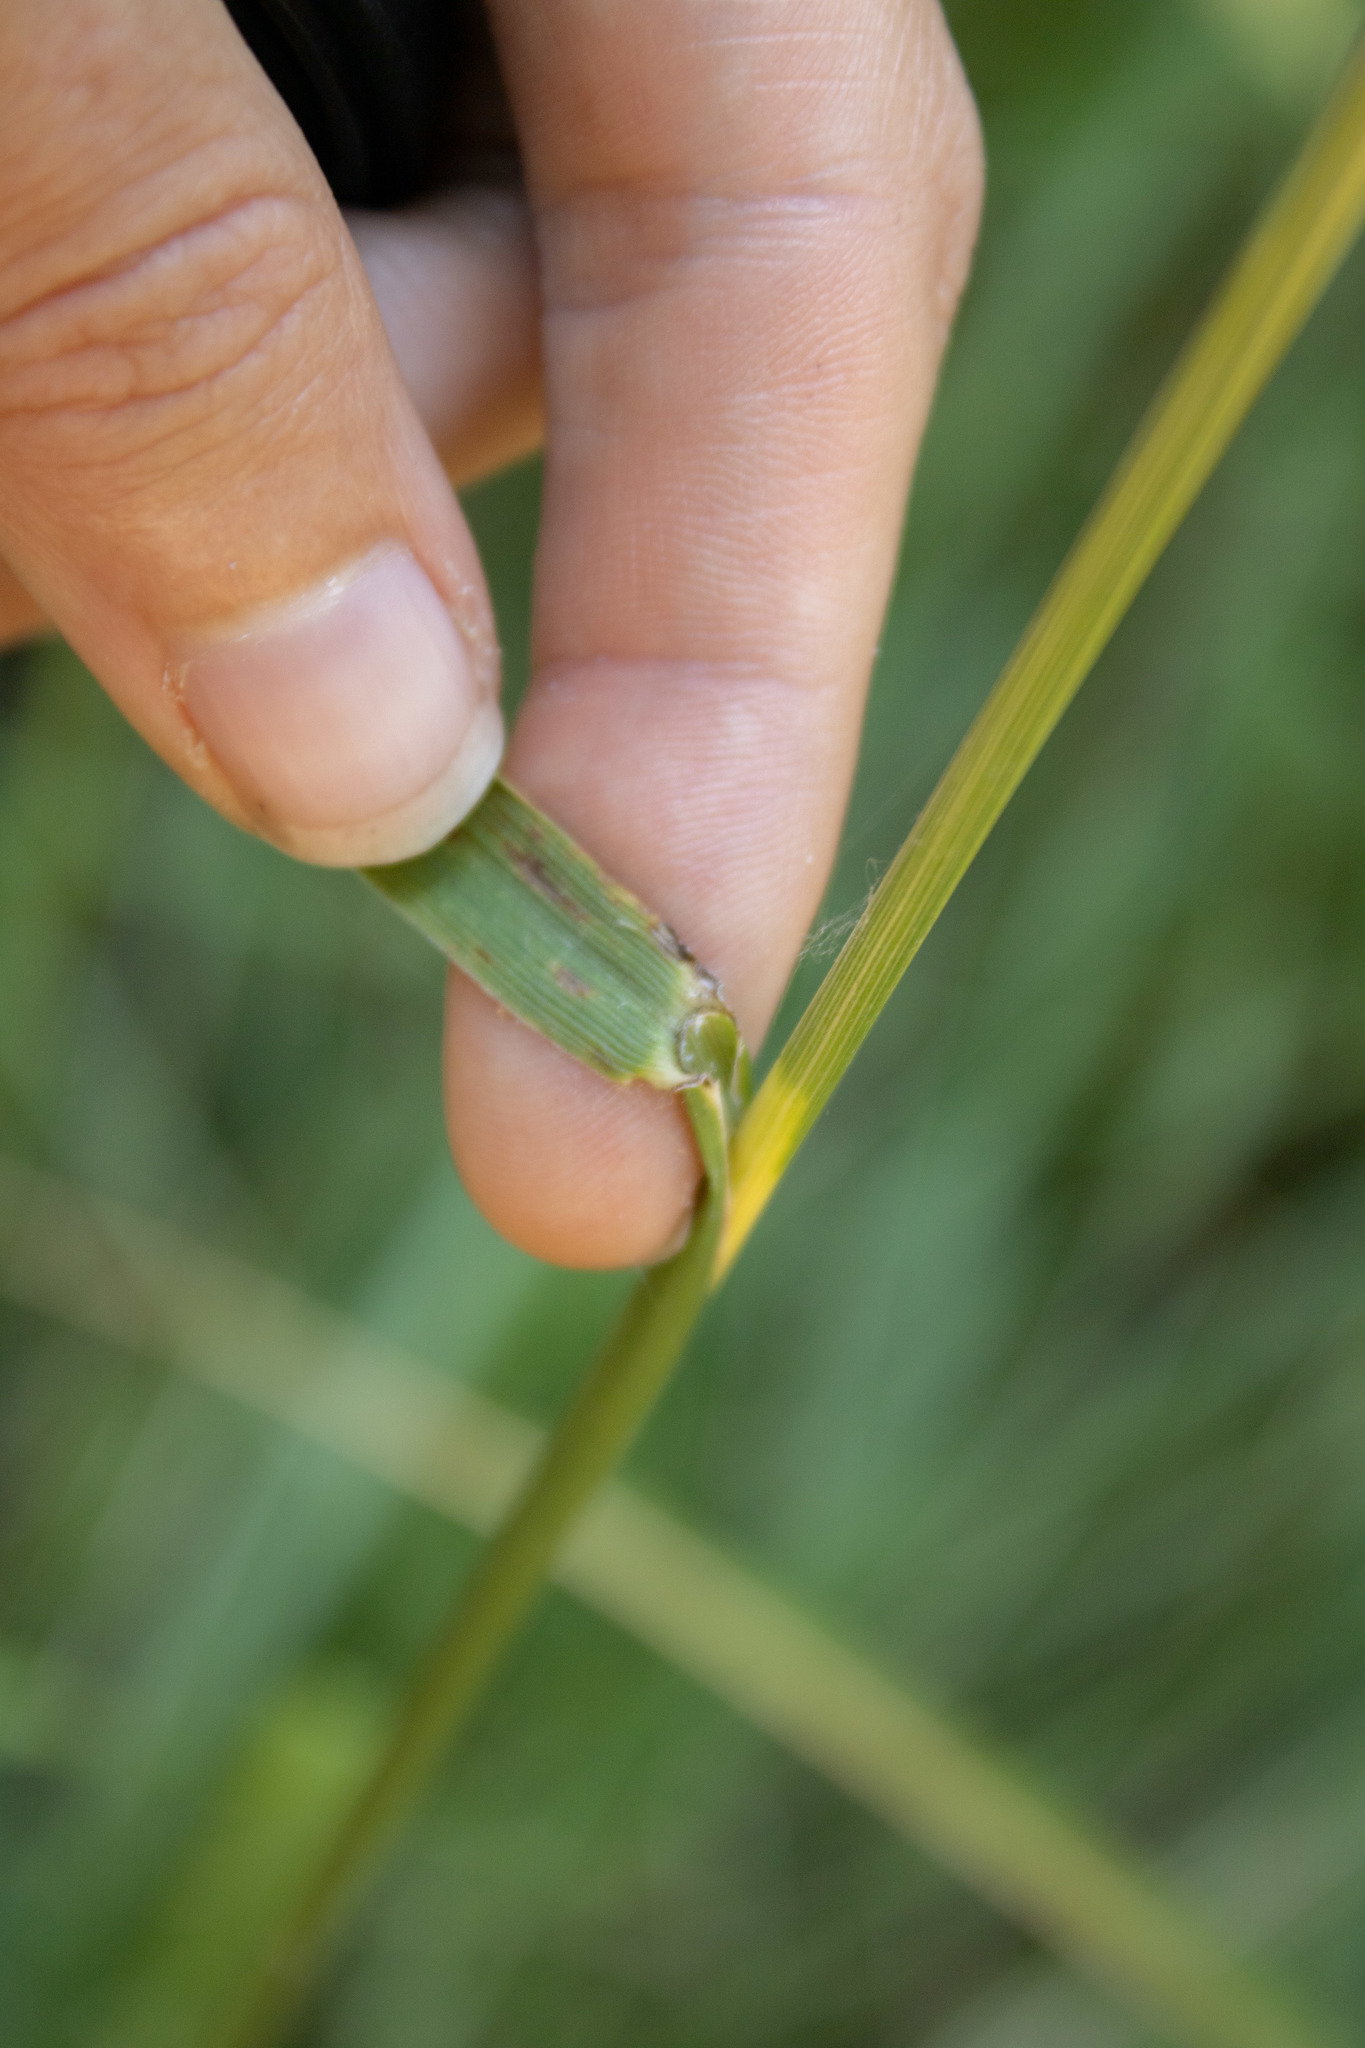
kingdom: Plantae
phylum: Tracheophyta
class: Liliopsida
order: Poales
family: Poaceae
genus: Lolium
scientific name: Lolium arundinaceum
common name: Reed fescue
